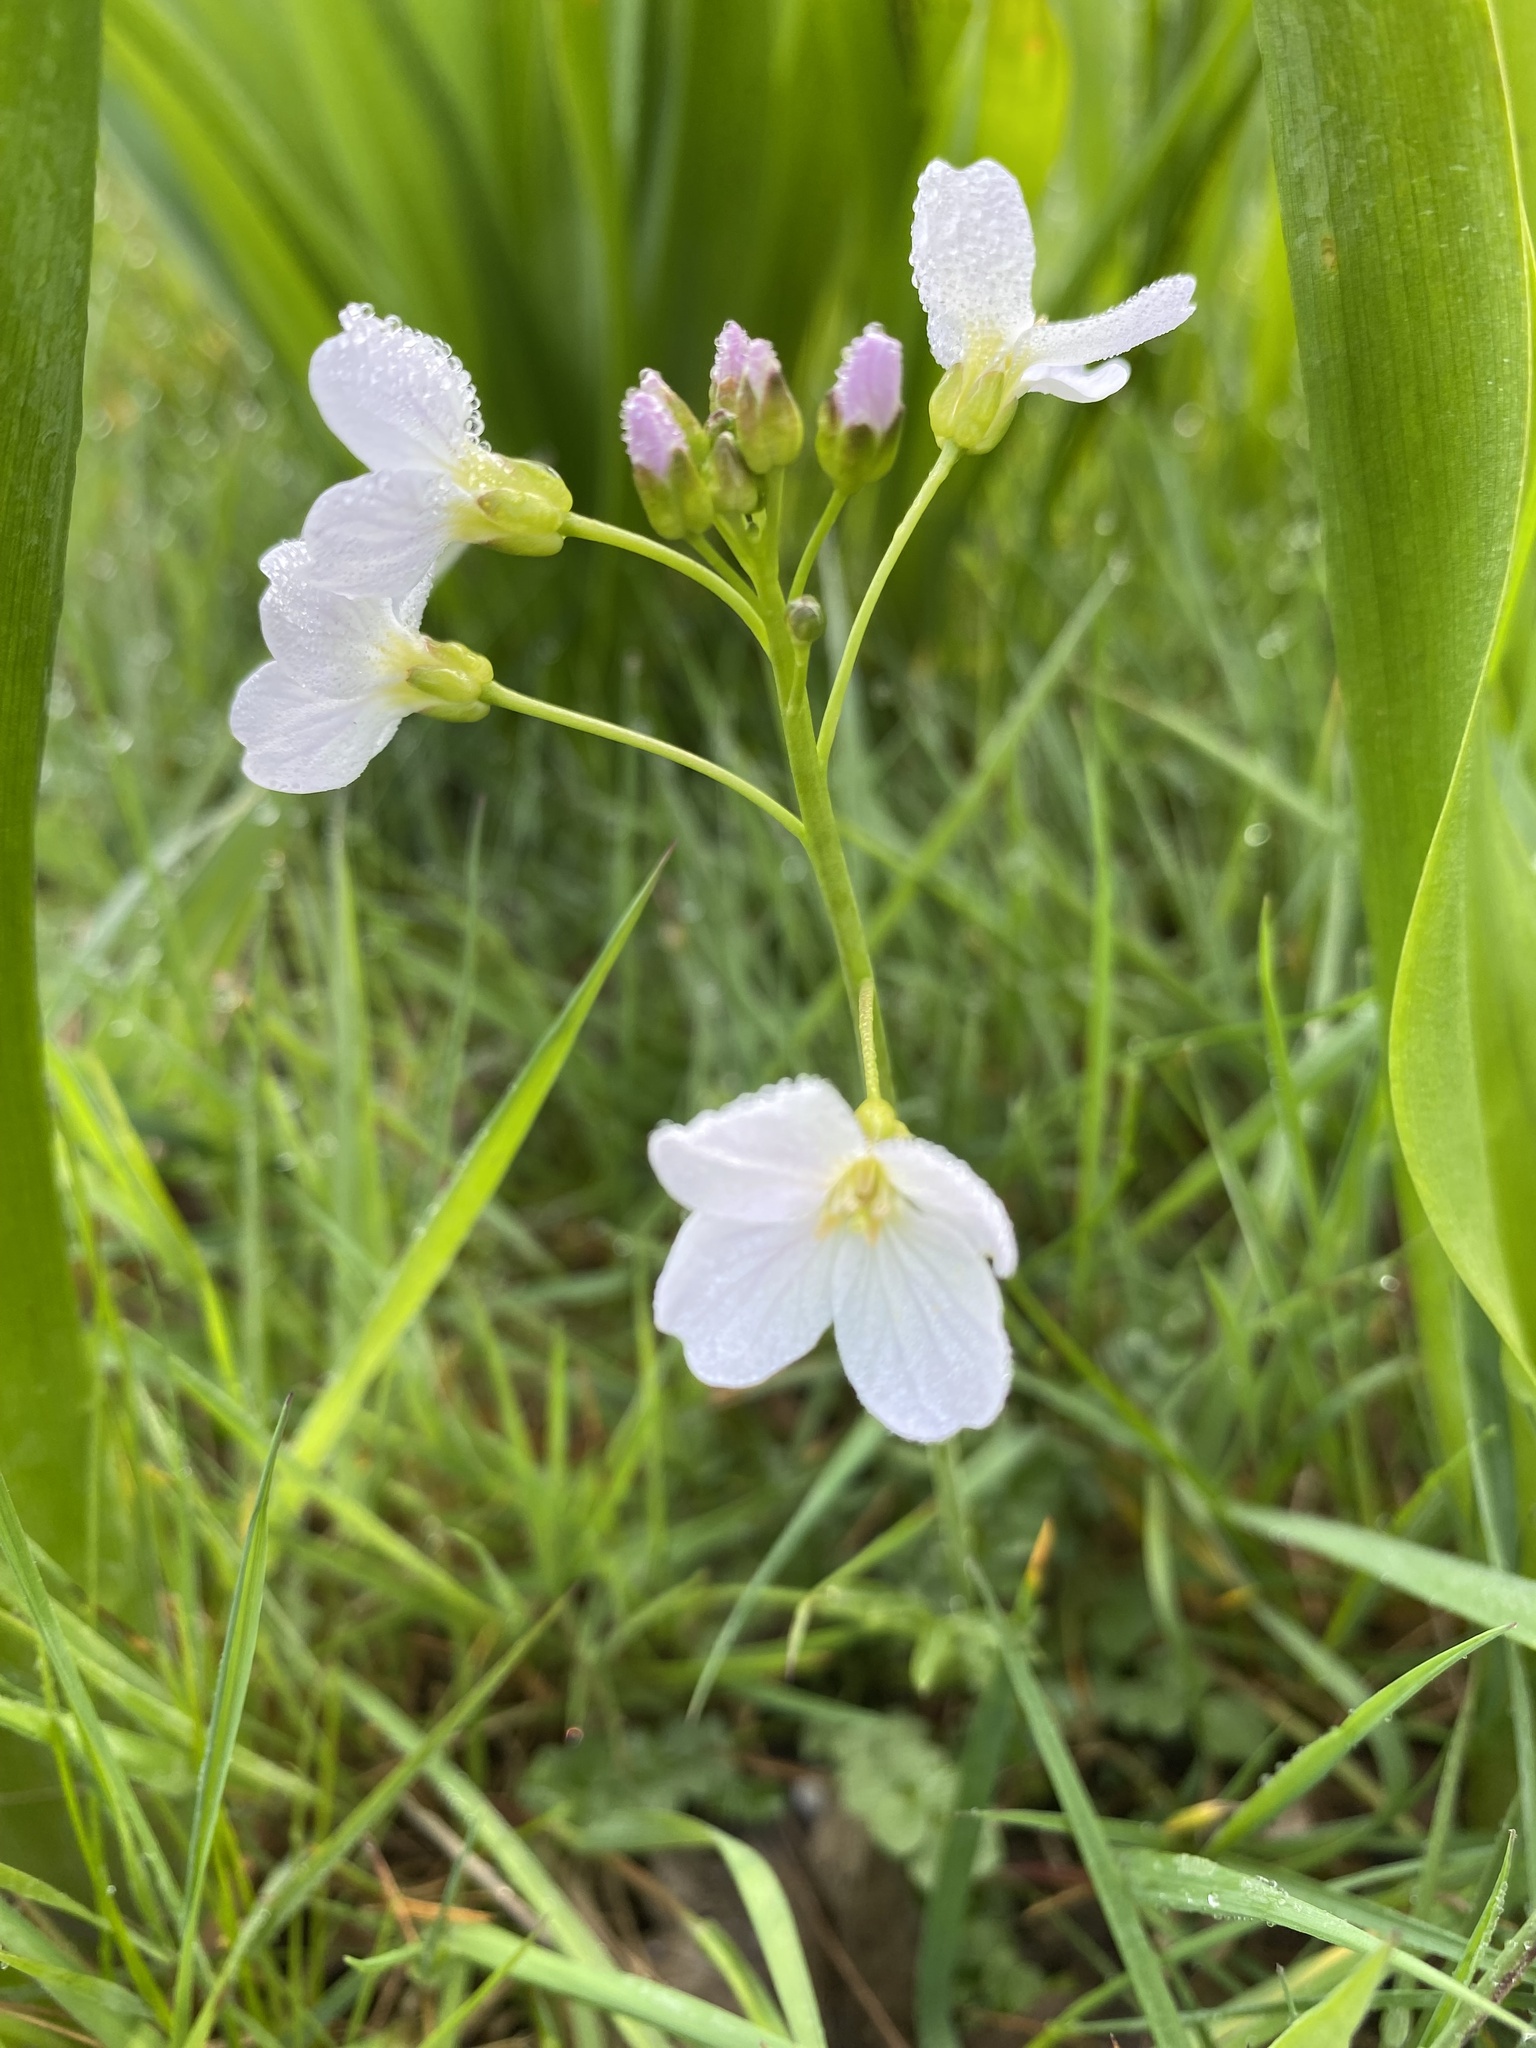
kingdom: Plantae
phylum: Tracheophyta
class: Magnoliopsida
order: Brassicales
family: Brassicaceae
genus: Cardamine
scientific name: Cardamine pratensis
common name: Cuckoo flower
